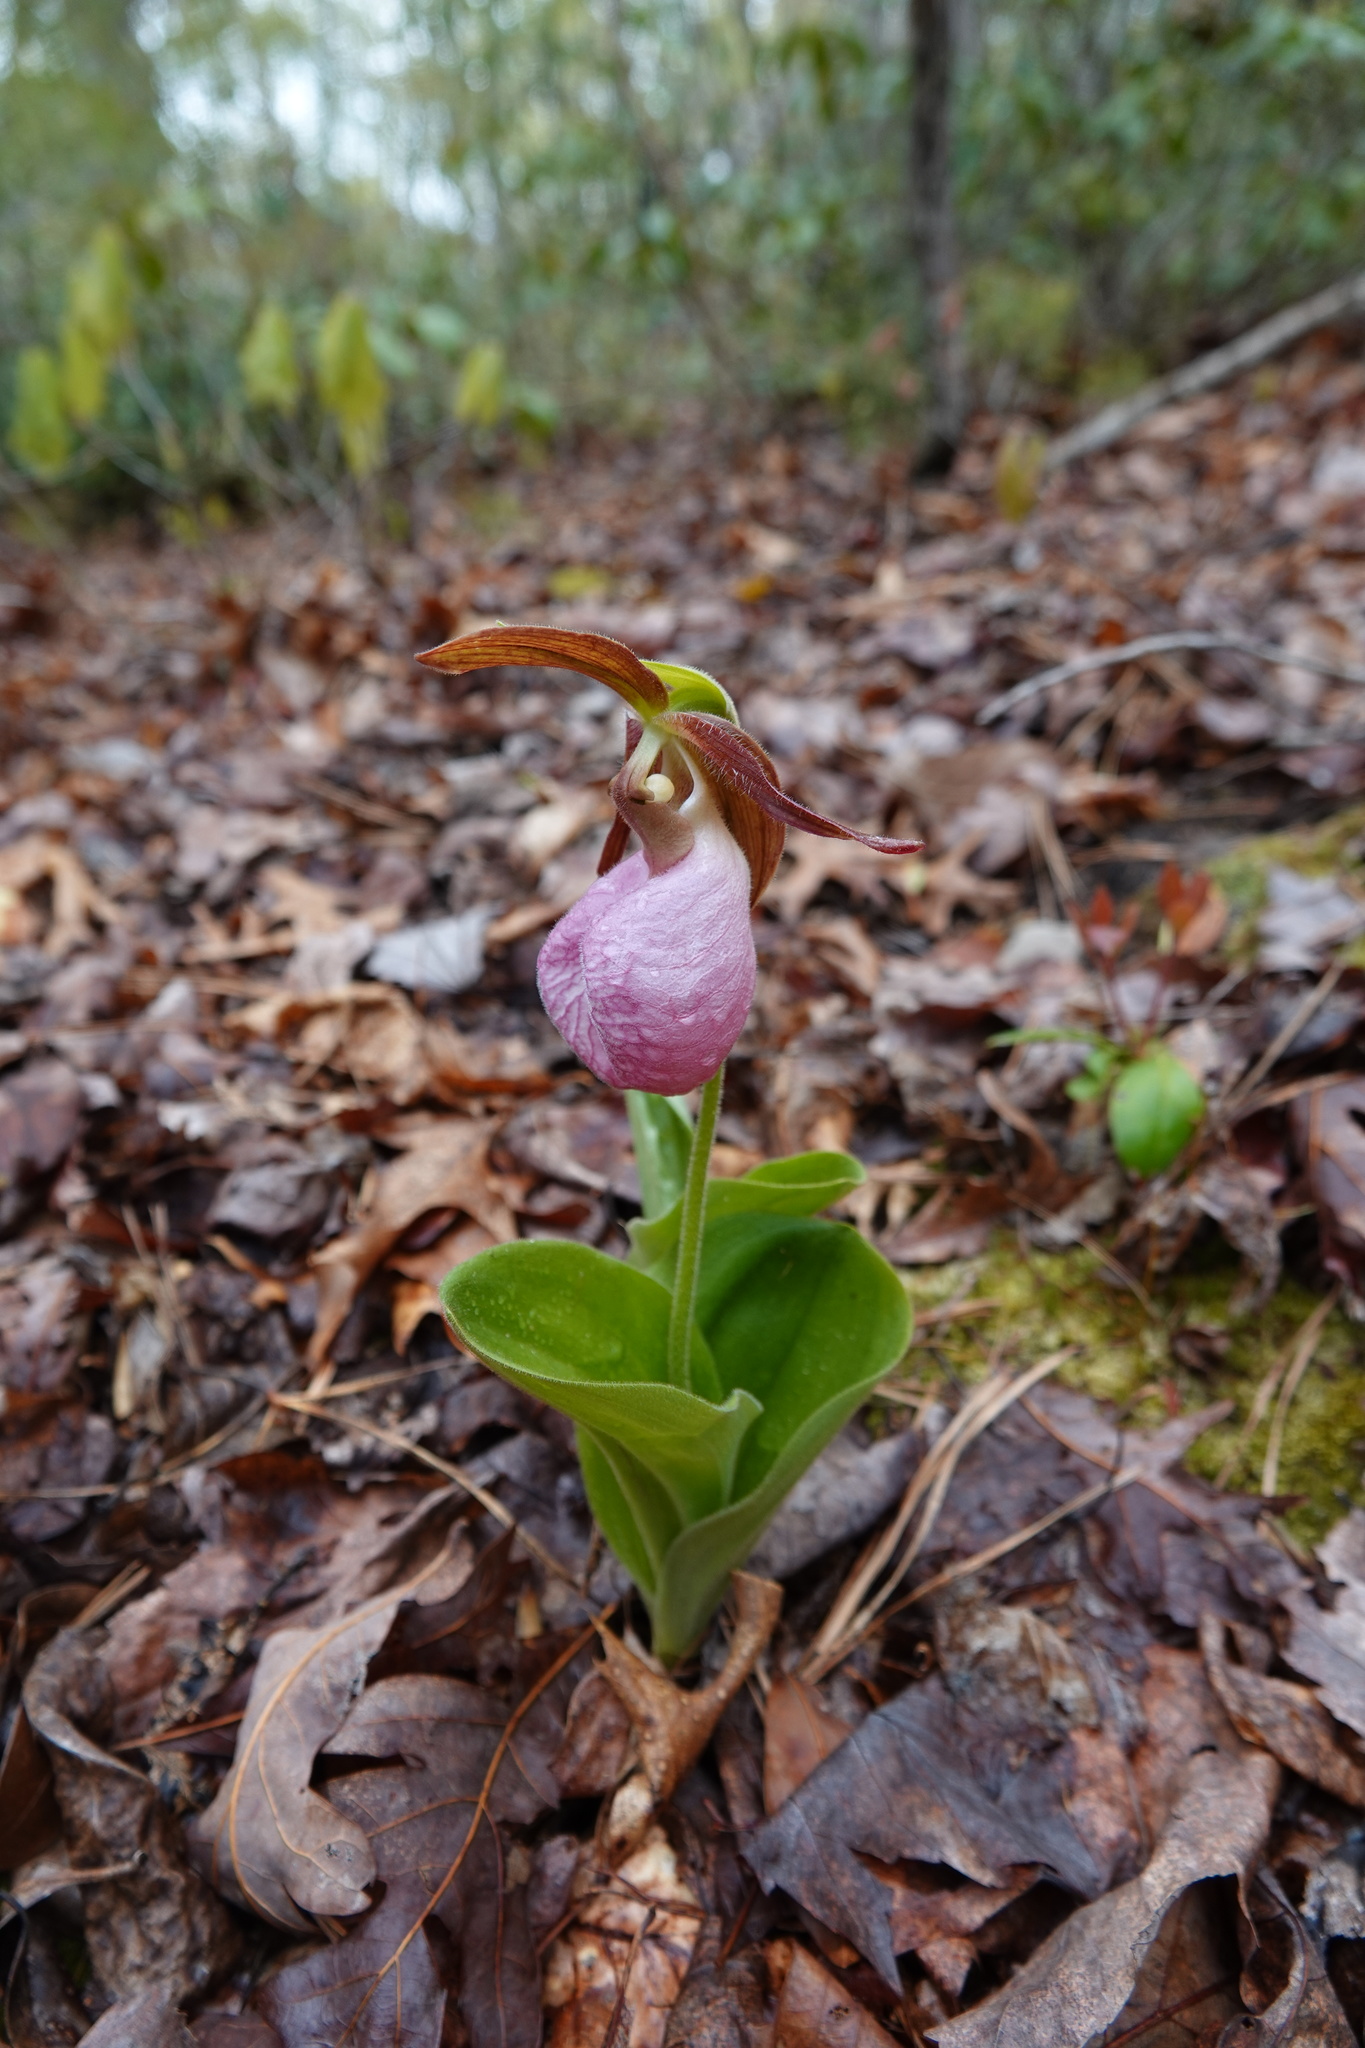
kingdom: Plantae
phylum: Tracheophyta
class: Liliopsida
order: Asparagales
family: Orchidaceae
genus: Cypripedium
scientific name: Cypripedium acaule
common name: Pink lady's-slipper
